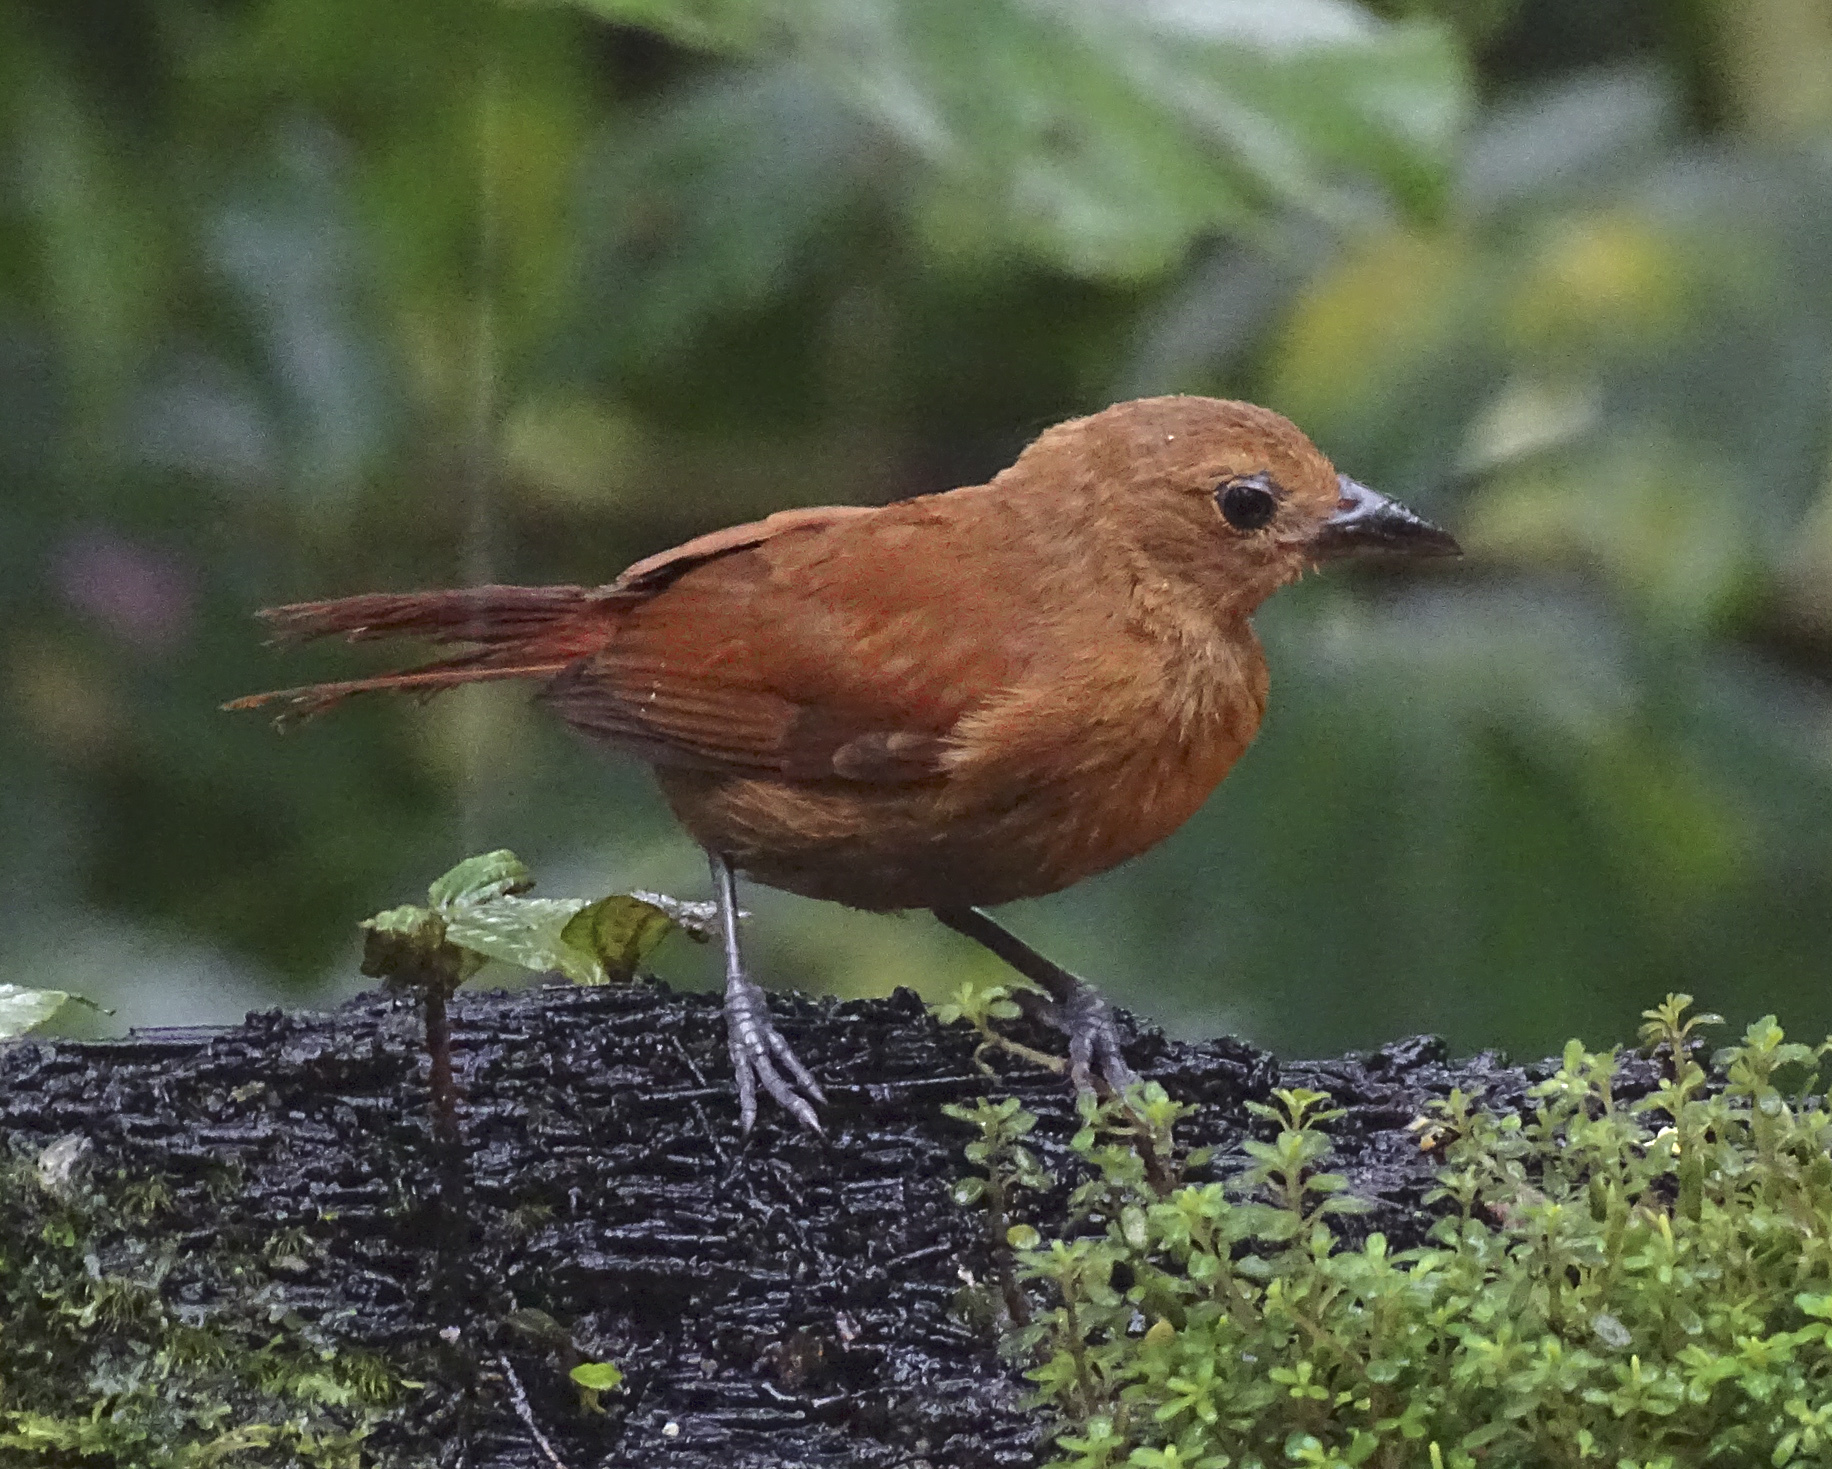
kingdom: Animalia
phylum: Chordata
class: Aves
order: Passeriformes
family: Thraupidae
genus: Tachyphonus
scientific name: Tachyphonus rufus
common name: White-lined tanager
